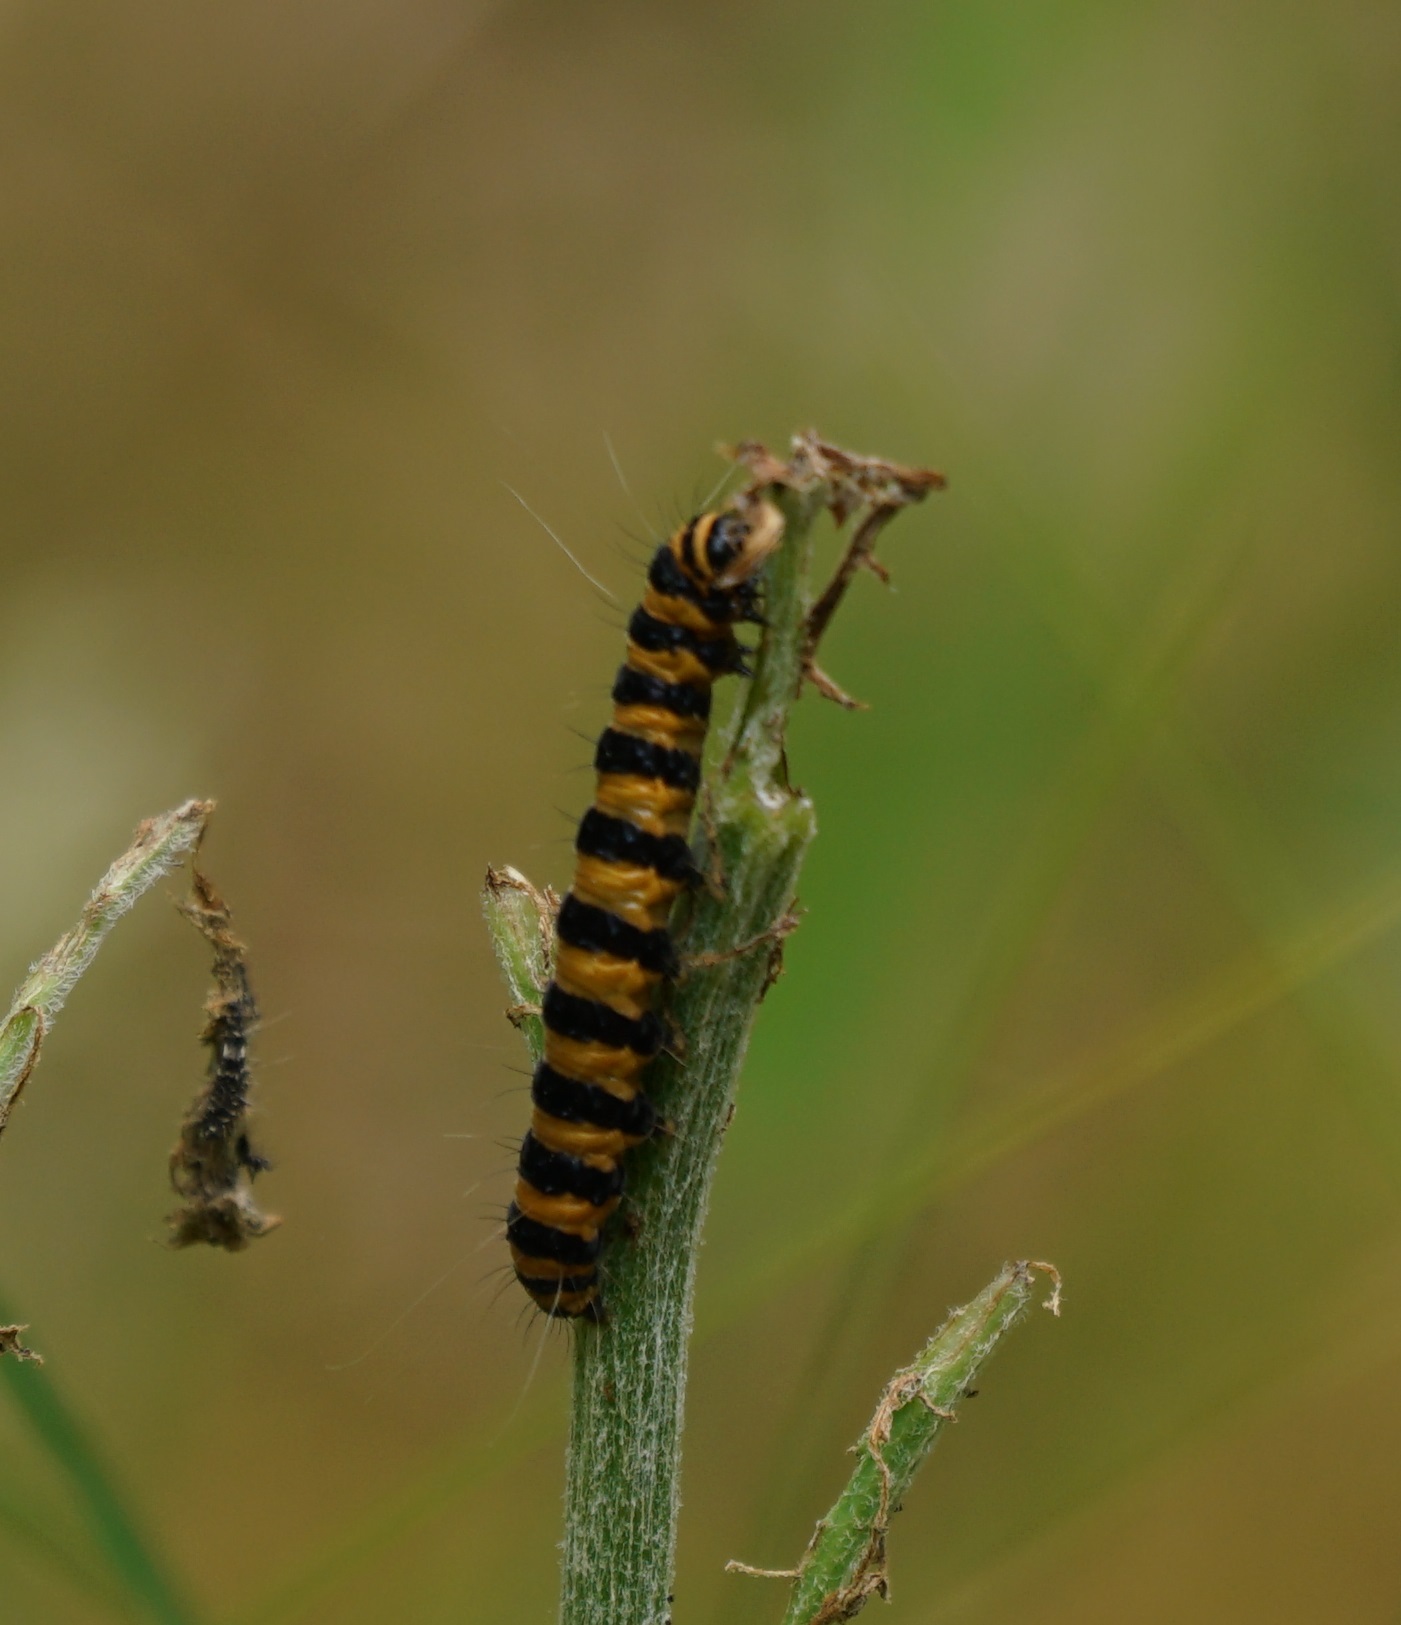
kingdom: Animalia
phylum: Arthropoda
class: Insecta
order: Lepidoptera
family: Erebidae
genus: Tyria
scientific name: Tyria jacobaeae
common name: Cinnabar
